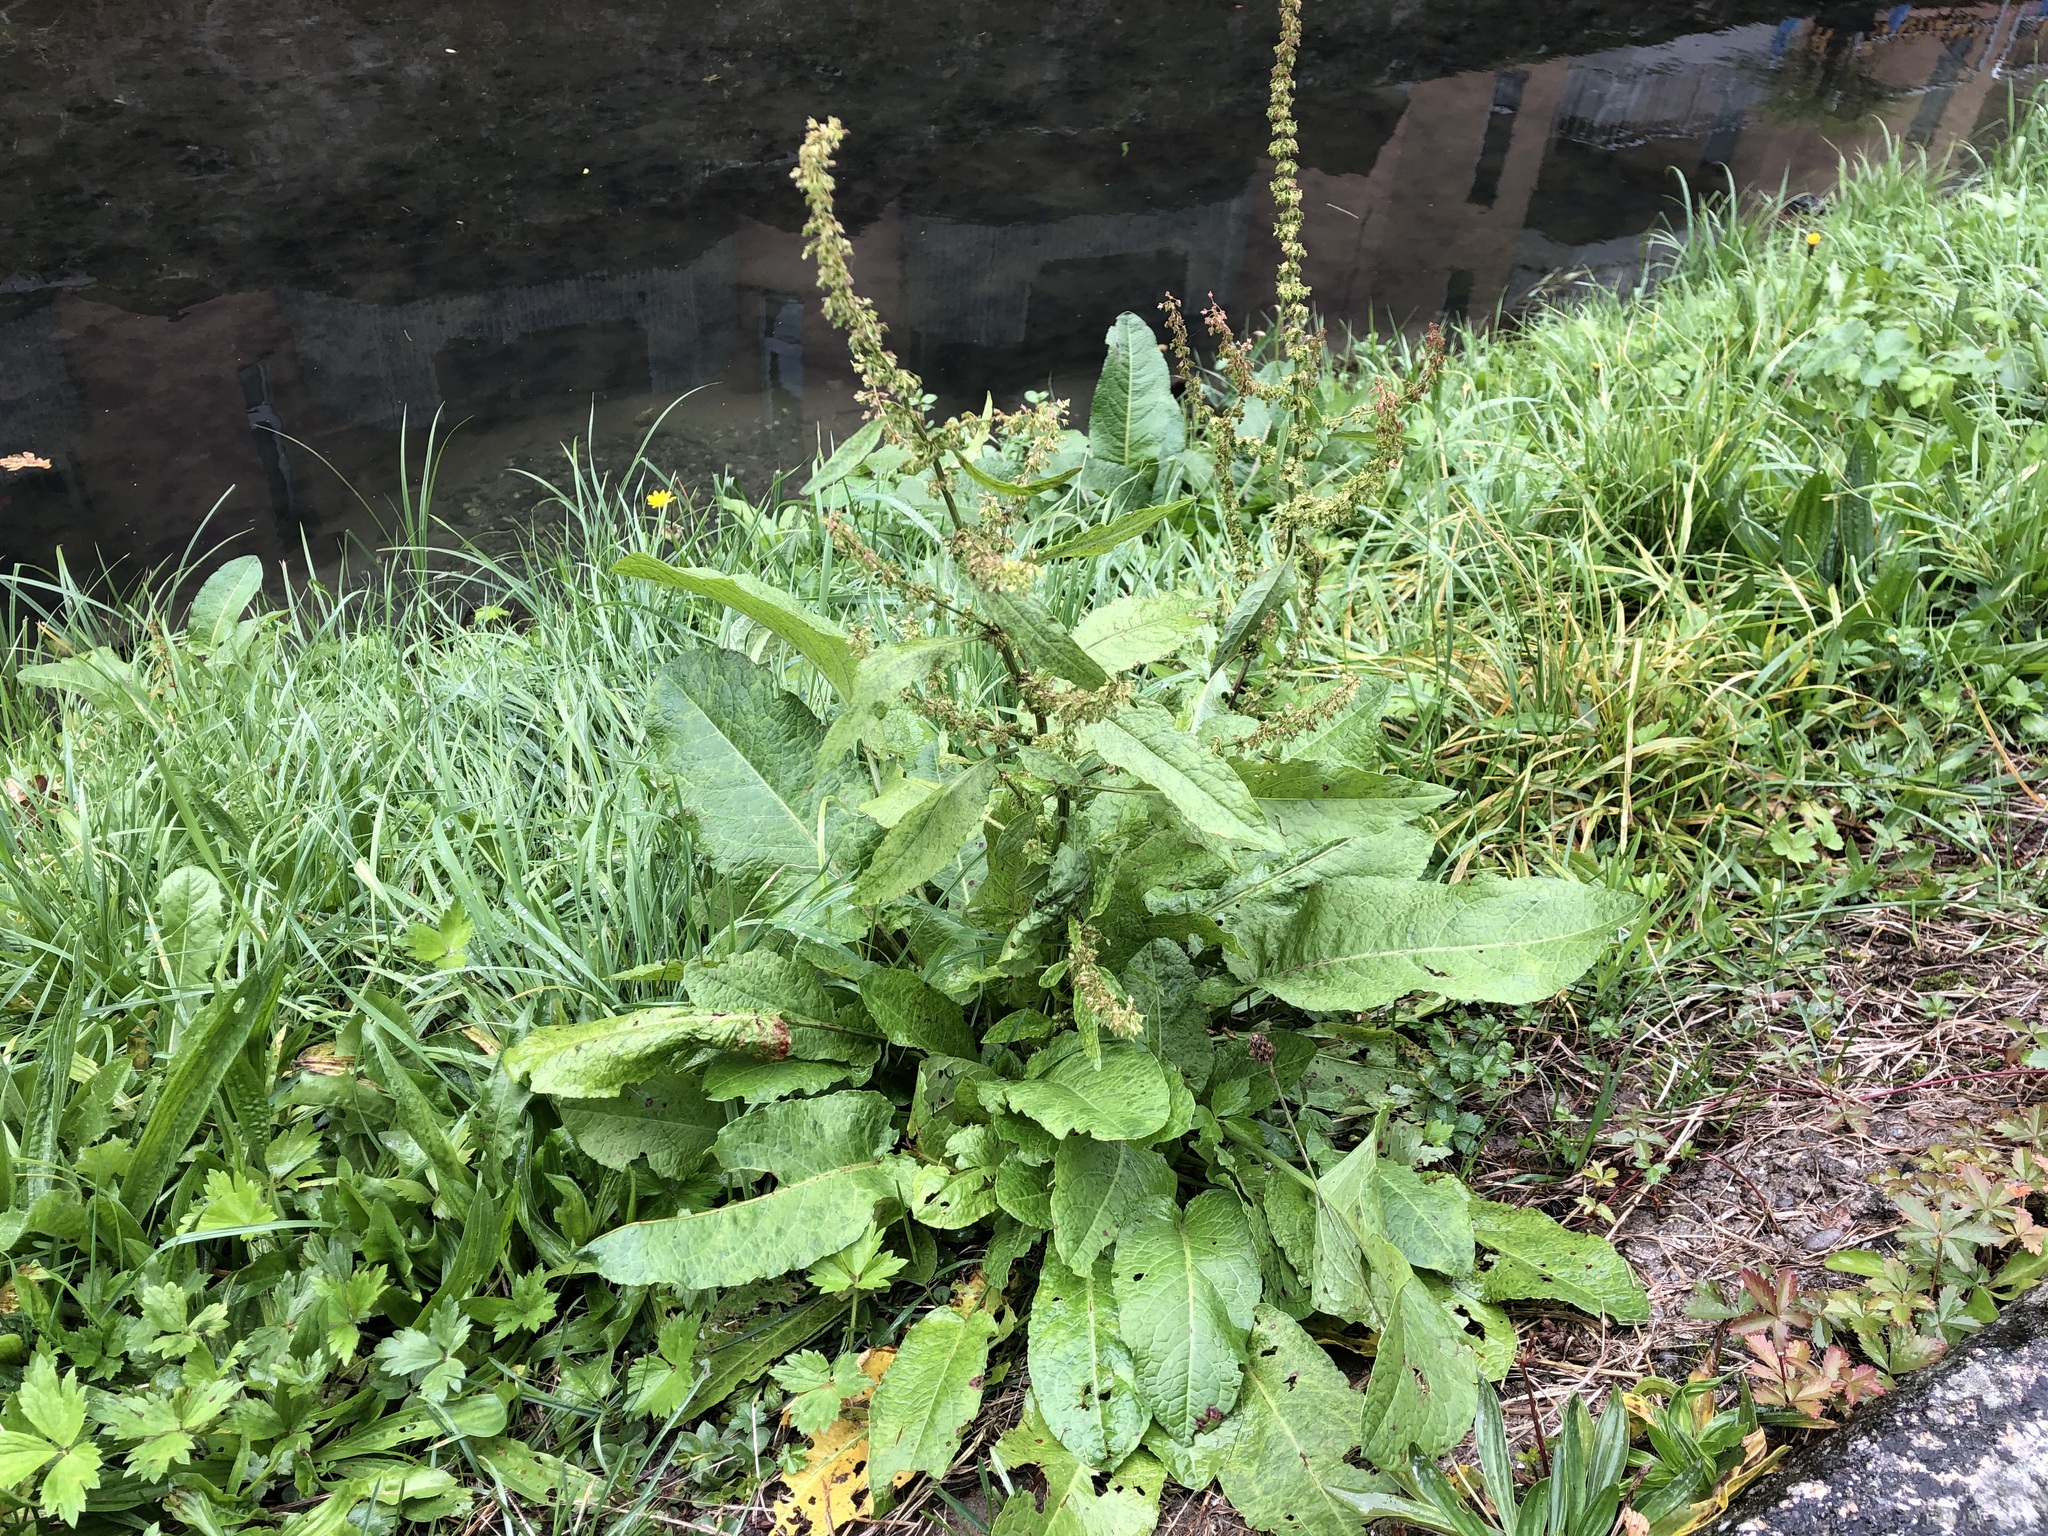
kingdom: Plantae
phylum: Tracheophyta
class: Magnoliopsida
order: Caryophyllales
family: Polygonaceae
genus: Rumex
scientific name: Rumex obtusifolius
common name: Bitter dock
